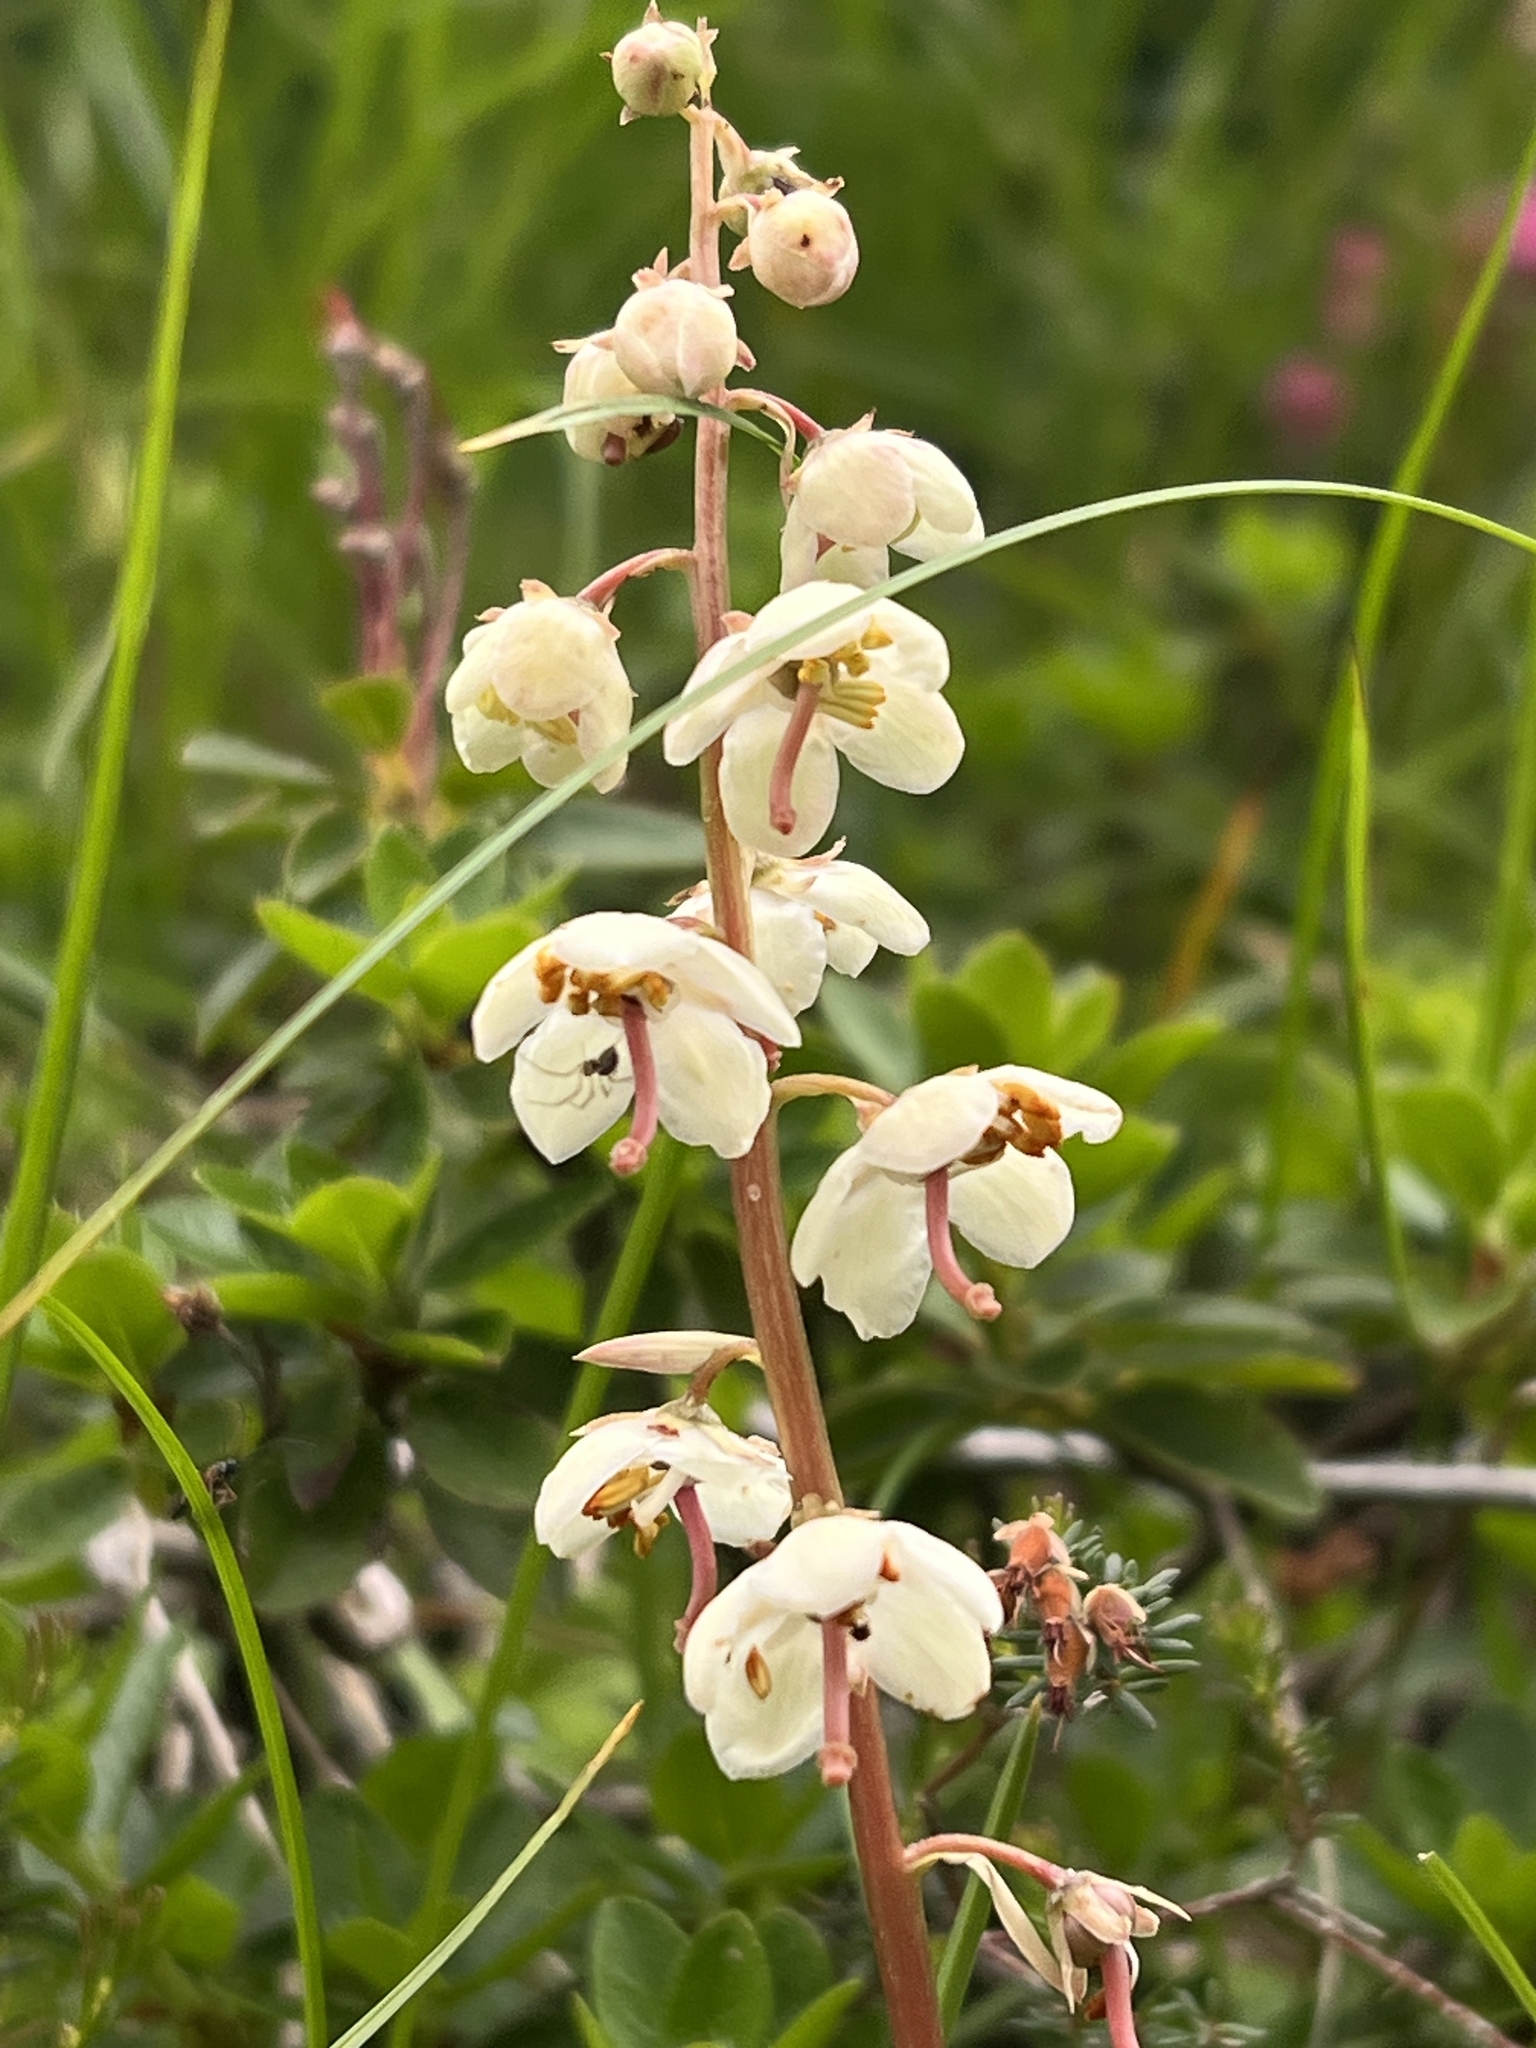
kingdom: Plantae
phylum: Tracheophyta
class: Magnoliopsida
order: Ericales
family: Ericaceae
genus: Pyrola
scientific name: Pyrola rotundifolia
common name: Round-leaved wintergreen
